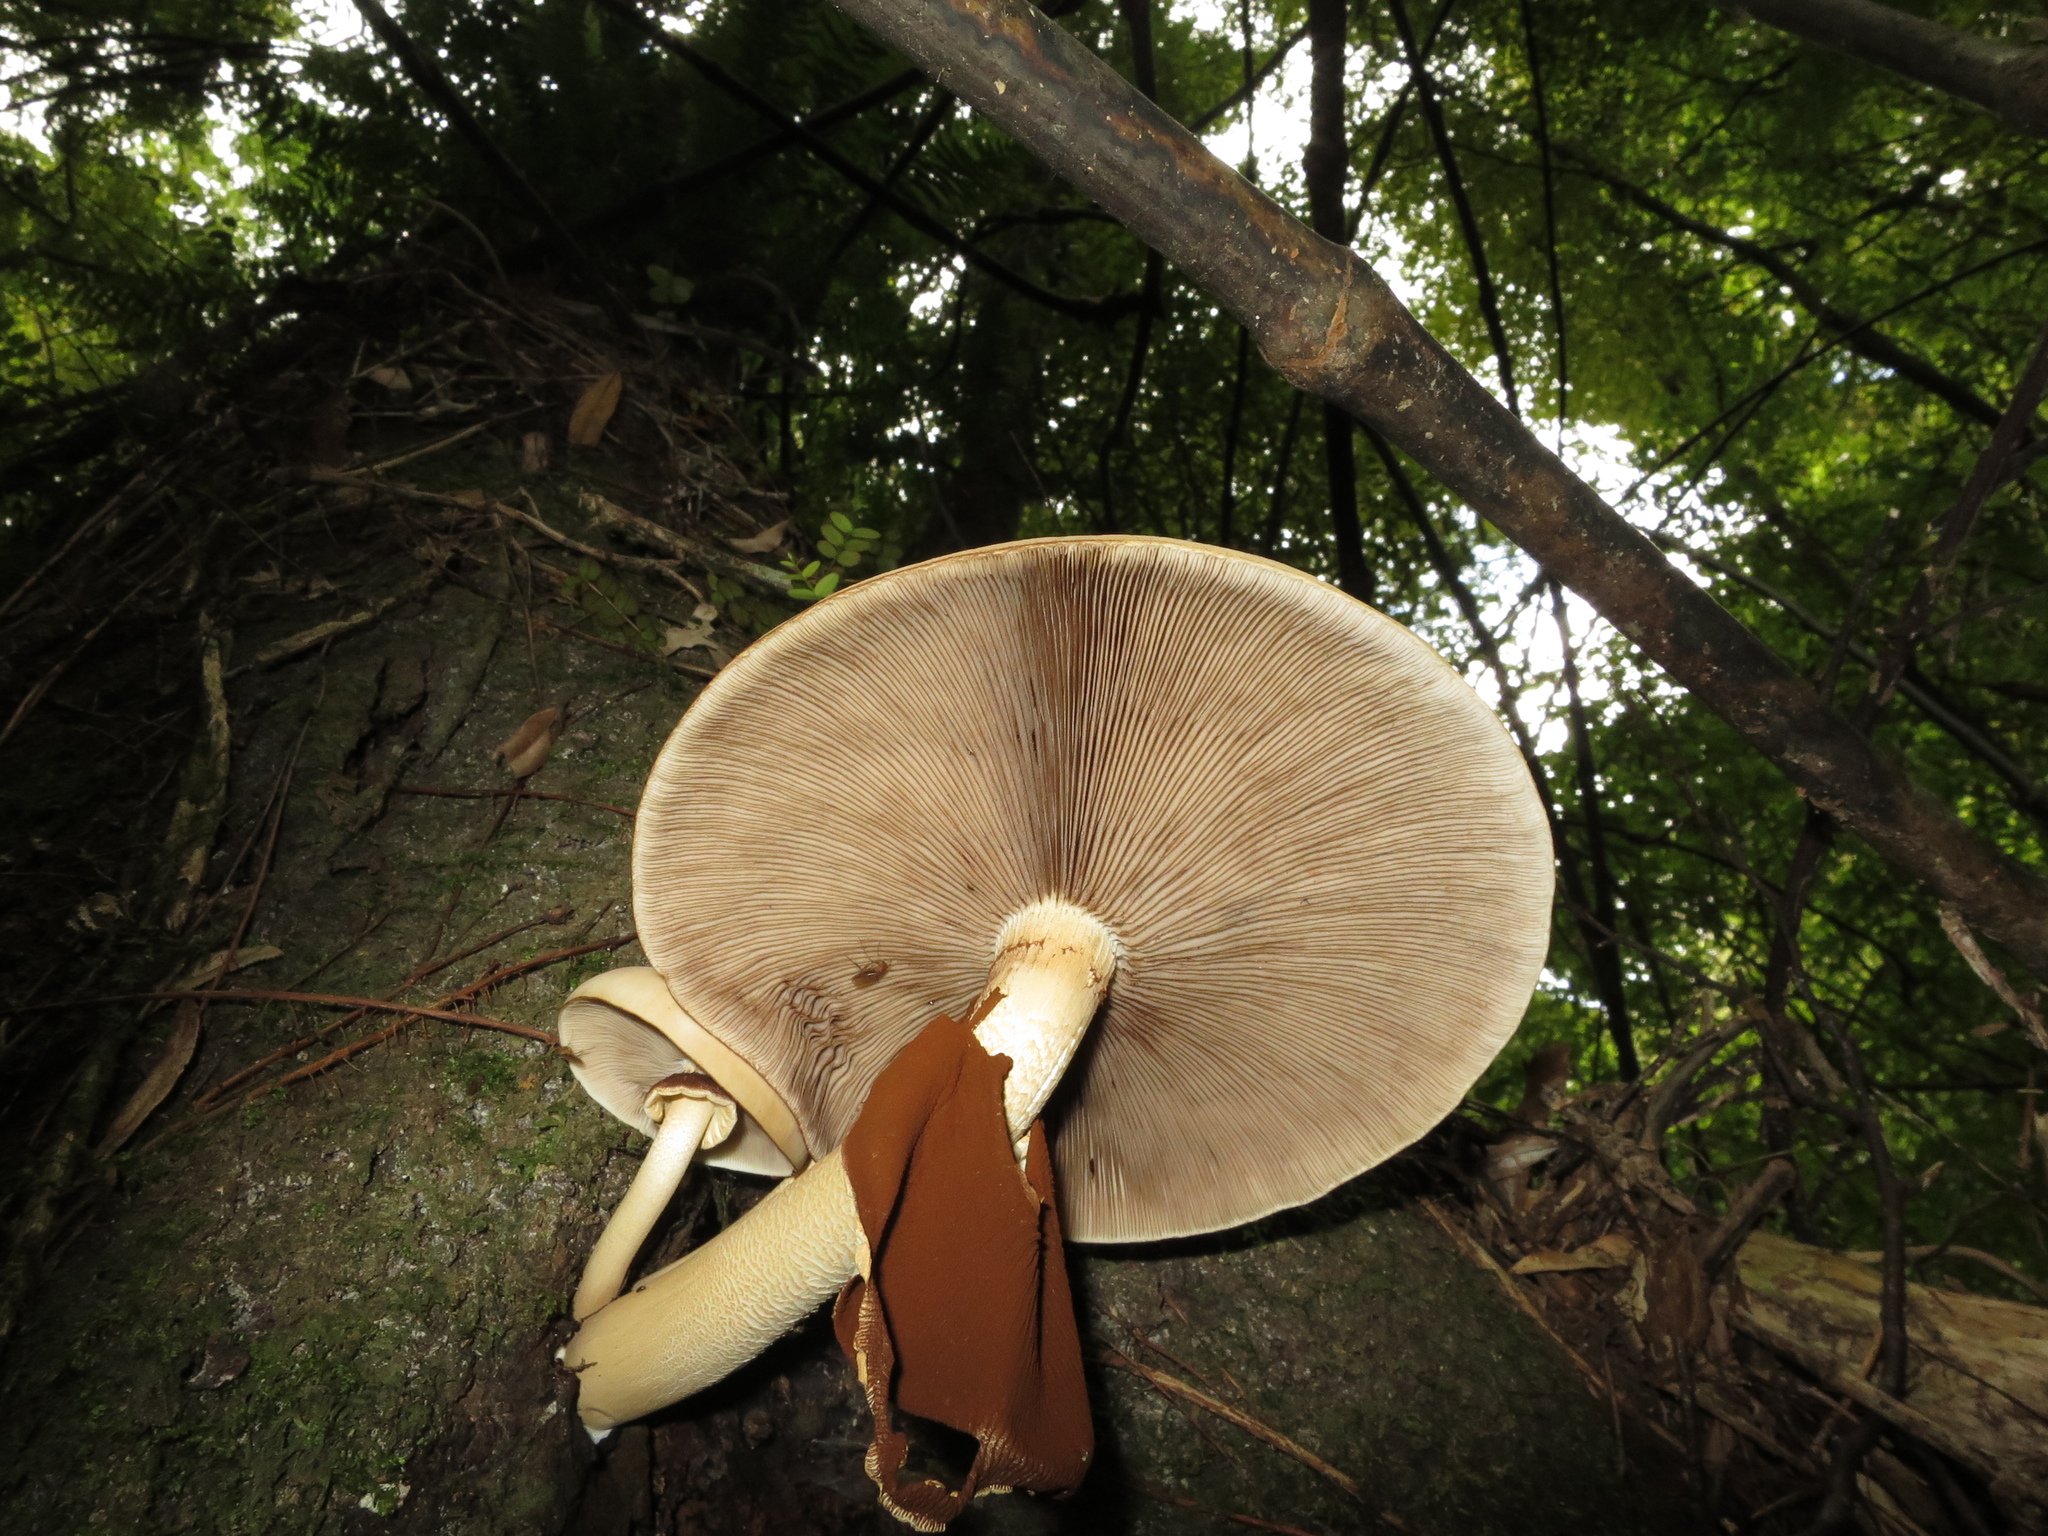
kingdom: Fungi
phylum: Basidiomycota
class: Agaricomycetes
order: Agaricales
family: Tubariaceae
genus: Cyclocybe
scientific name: Cyclocybe parasitica
